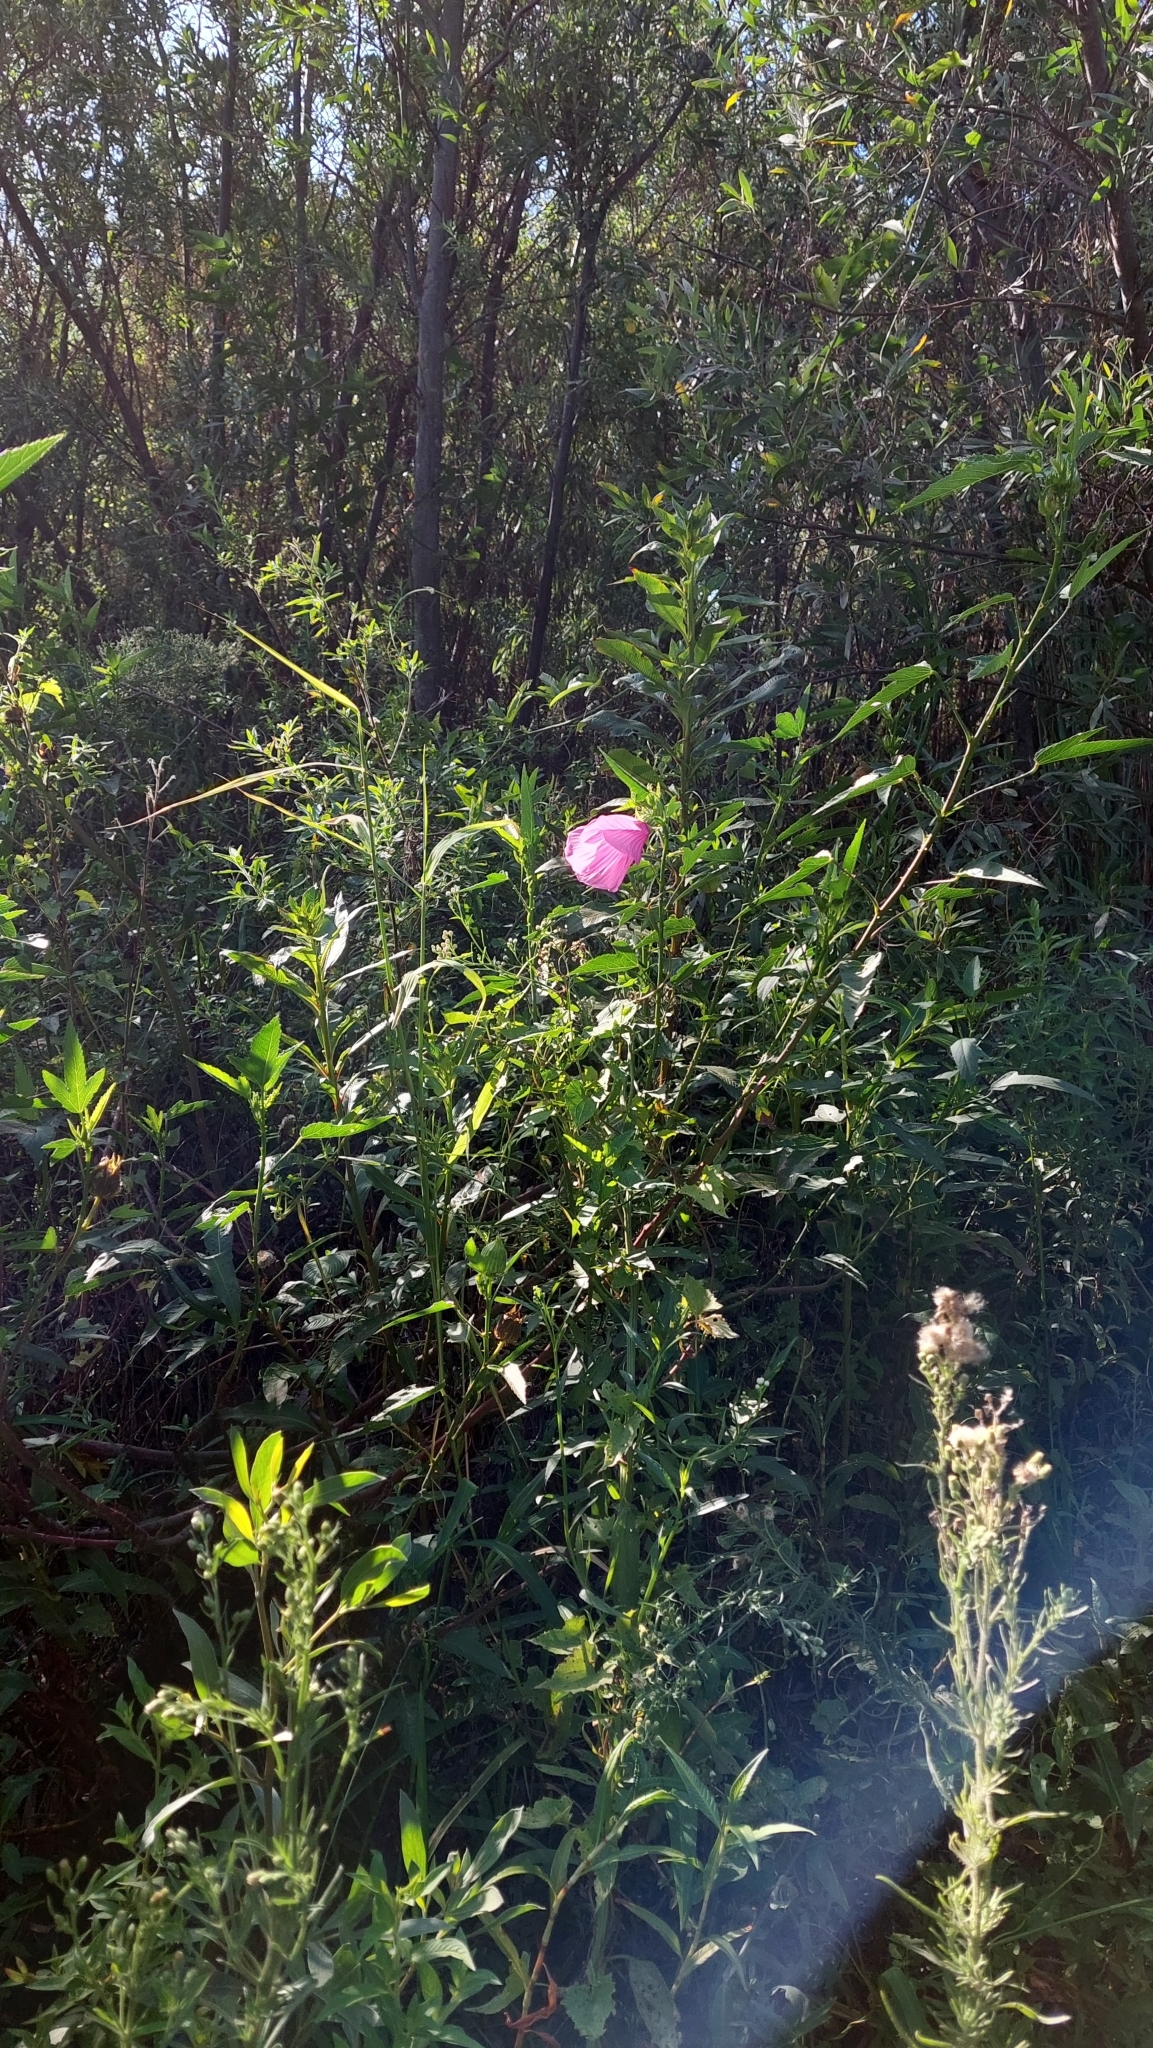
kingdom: Plantae
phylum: Tracheophyta
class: Magnoliopsida
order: Malvales
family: Malvaceae
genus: Hibiscus
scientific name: Hibiscus striatus
